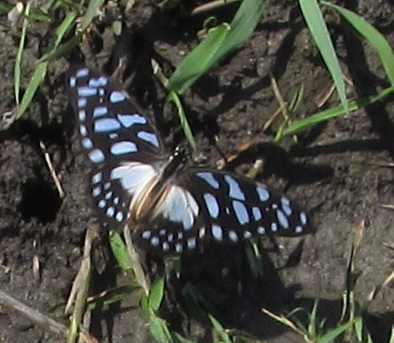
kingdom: Animalia
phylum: Arthropoda
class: Insecta
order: Lepidoptera
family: Papilionidae
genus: Graphium
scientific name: Graphium leonidas
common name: Common graphium
